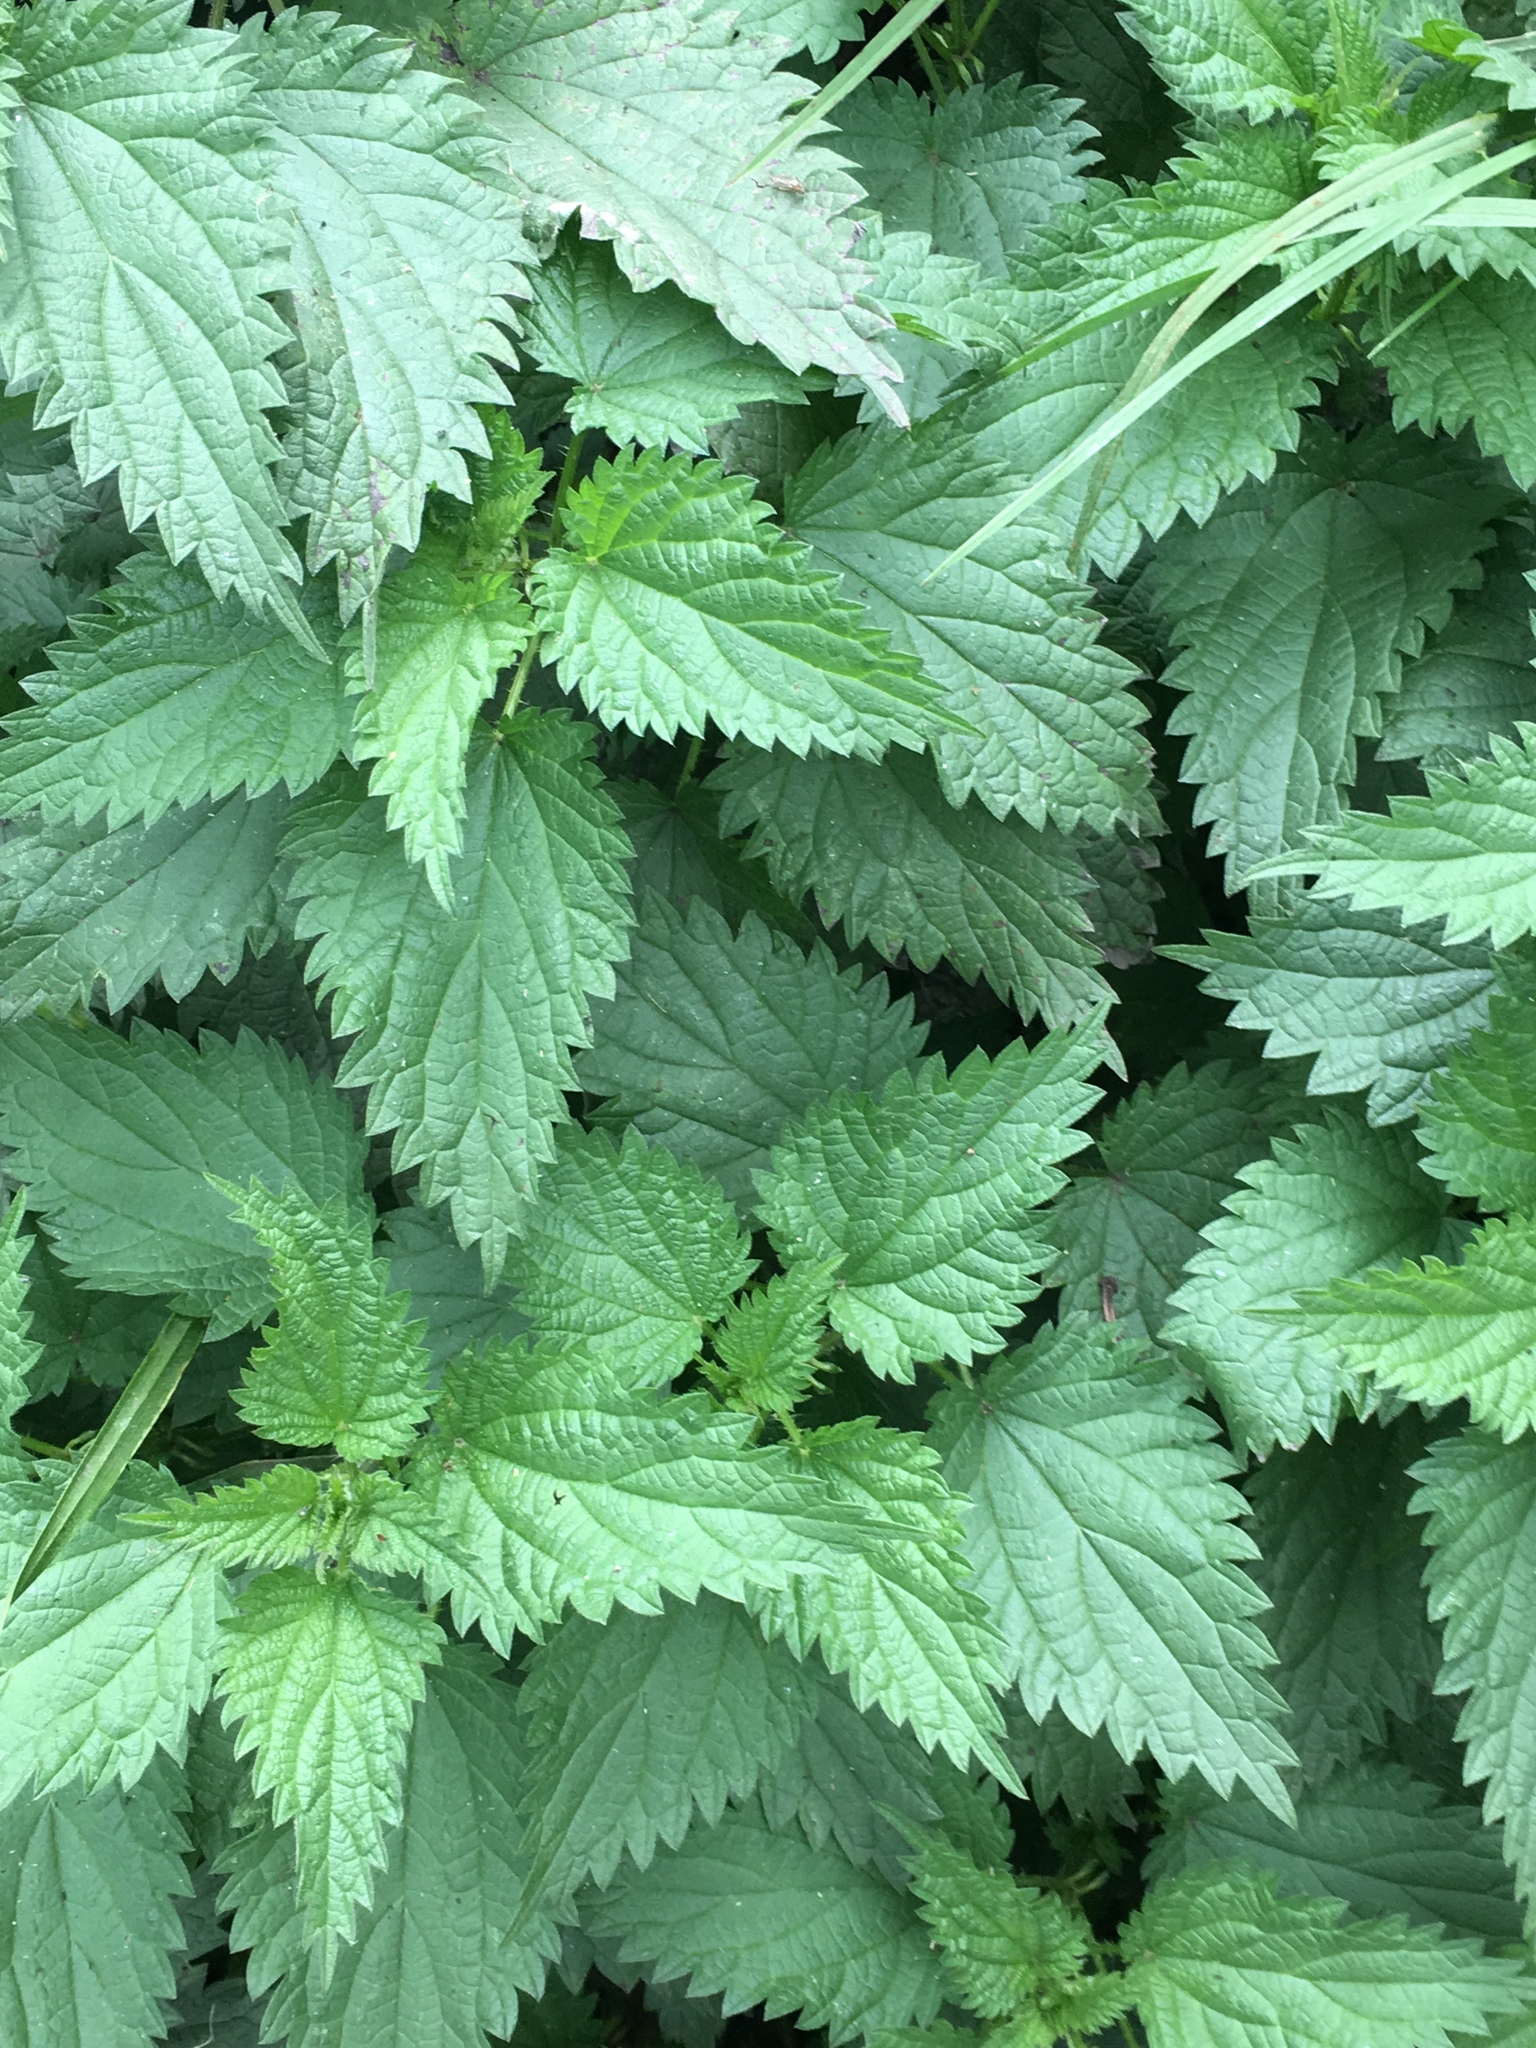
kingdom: Plantae
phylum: Tracheophyta
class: Magnoliopsida
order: Rosales
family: Urticaceae
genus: Urtica
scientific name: Urtica dioica
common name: Common nettle
